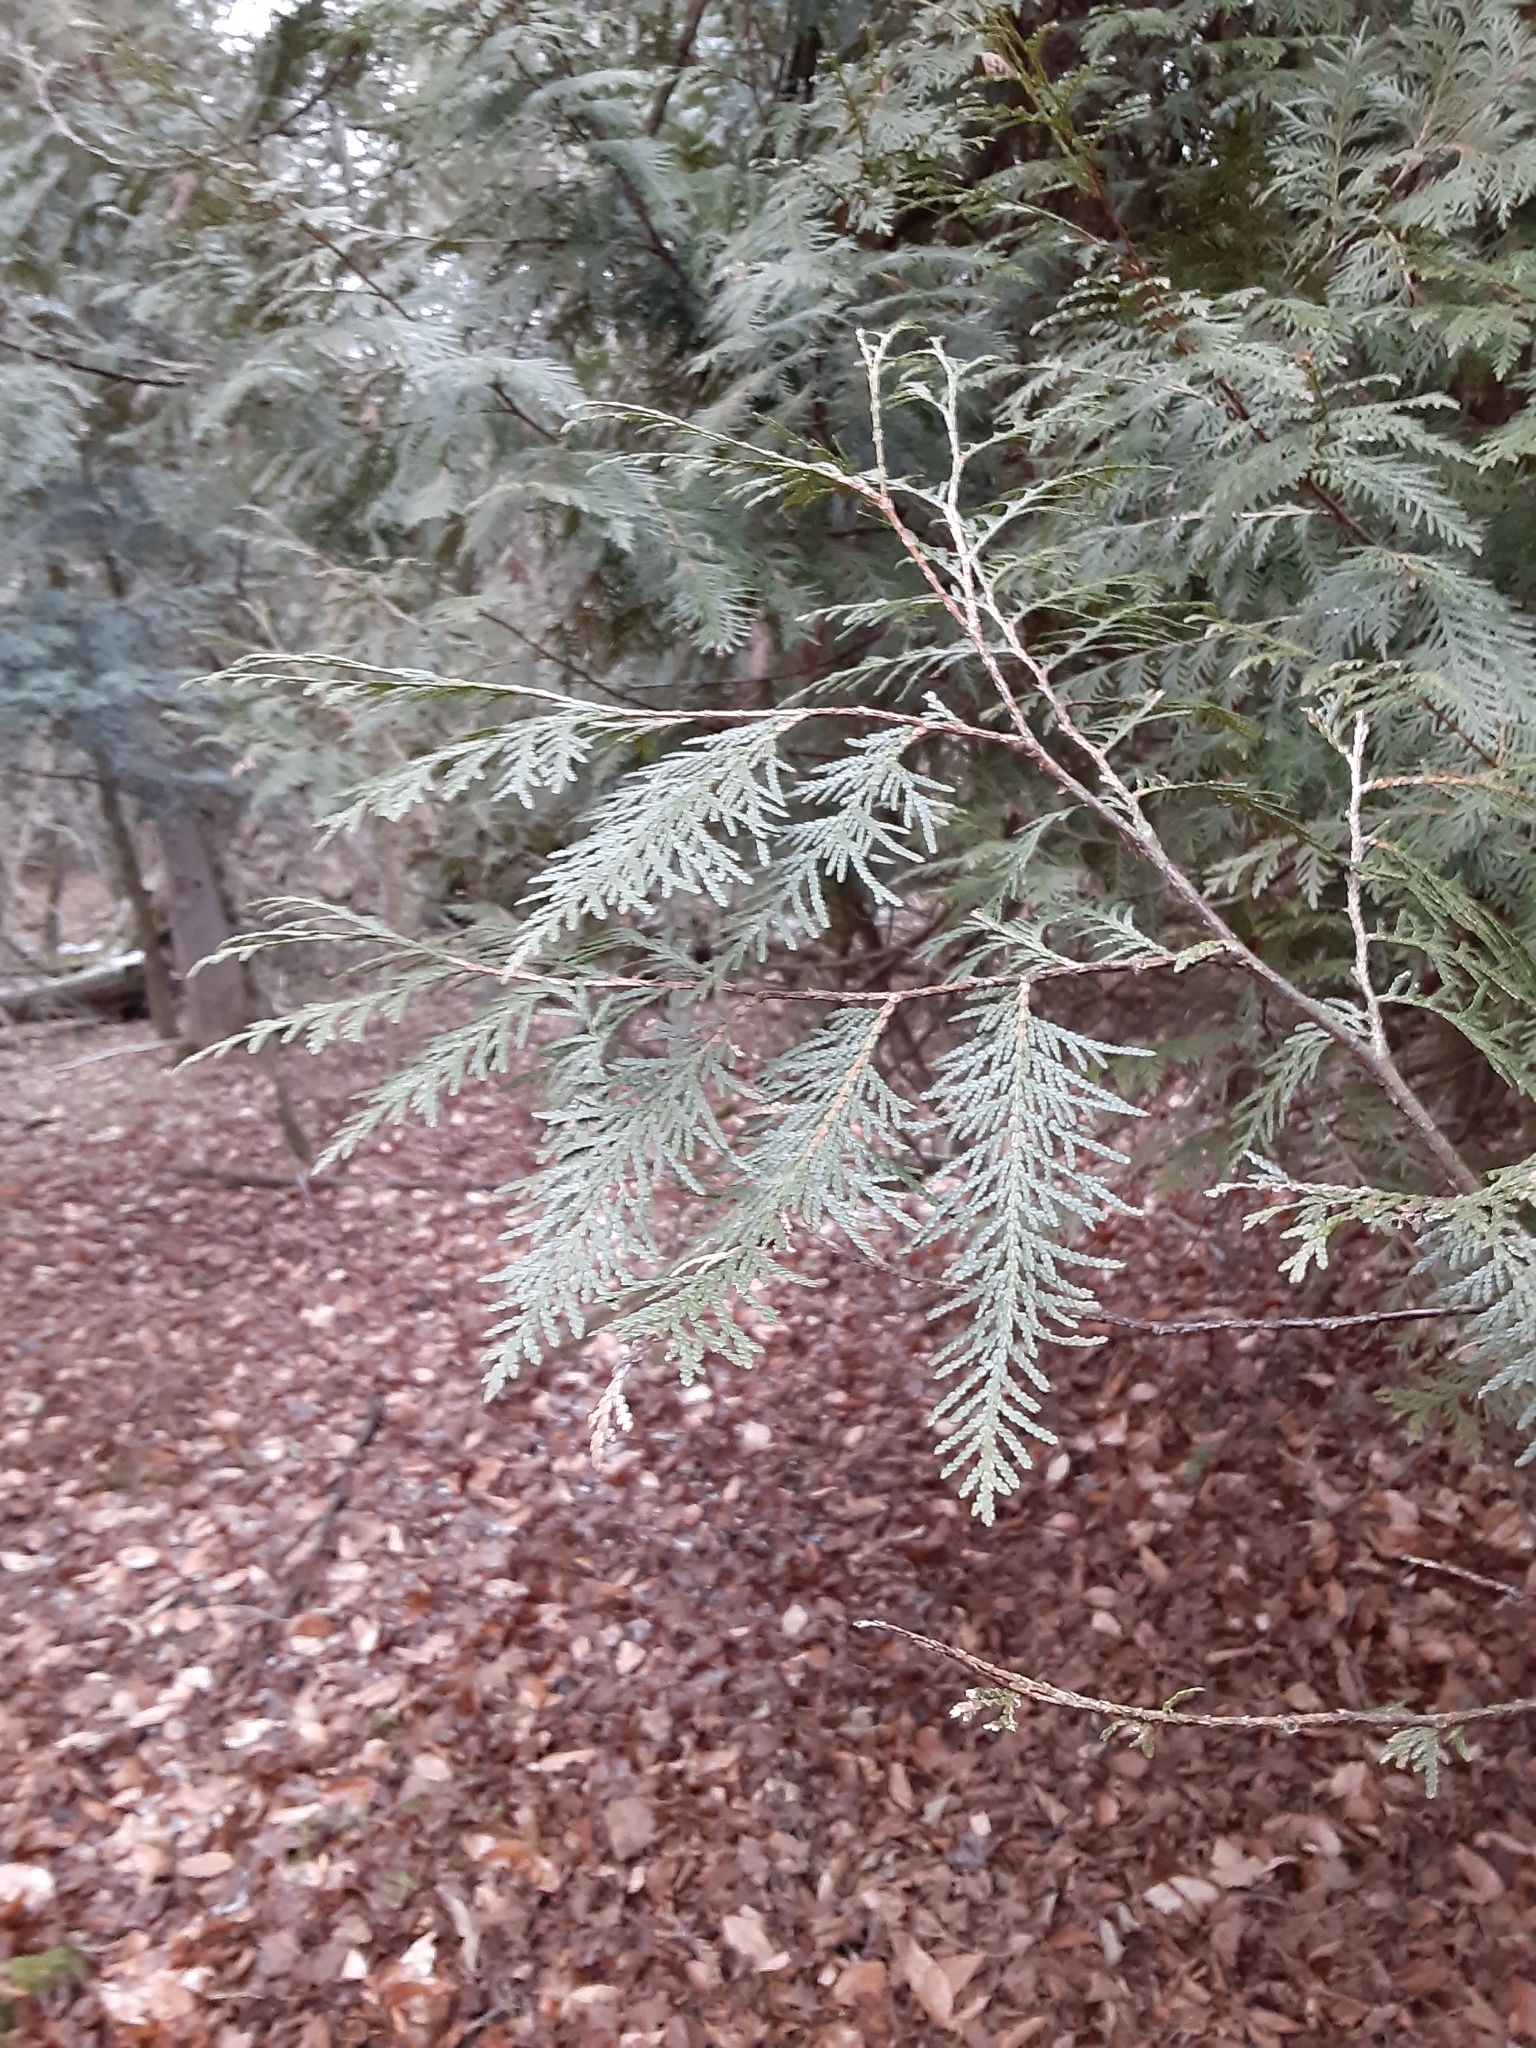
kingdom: Plantae
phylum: Tracheophyta
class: Pinopsida
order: Pinales
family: Cupressaceae
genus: Thuja
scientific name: Thuja occidentalis
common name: Northern white-cedar
